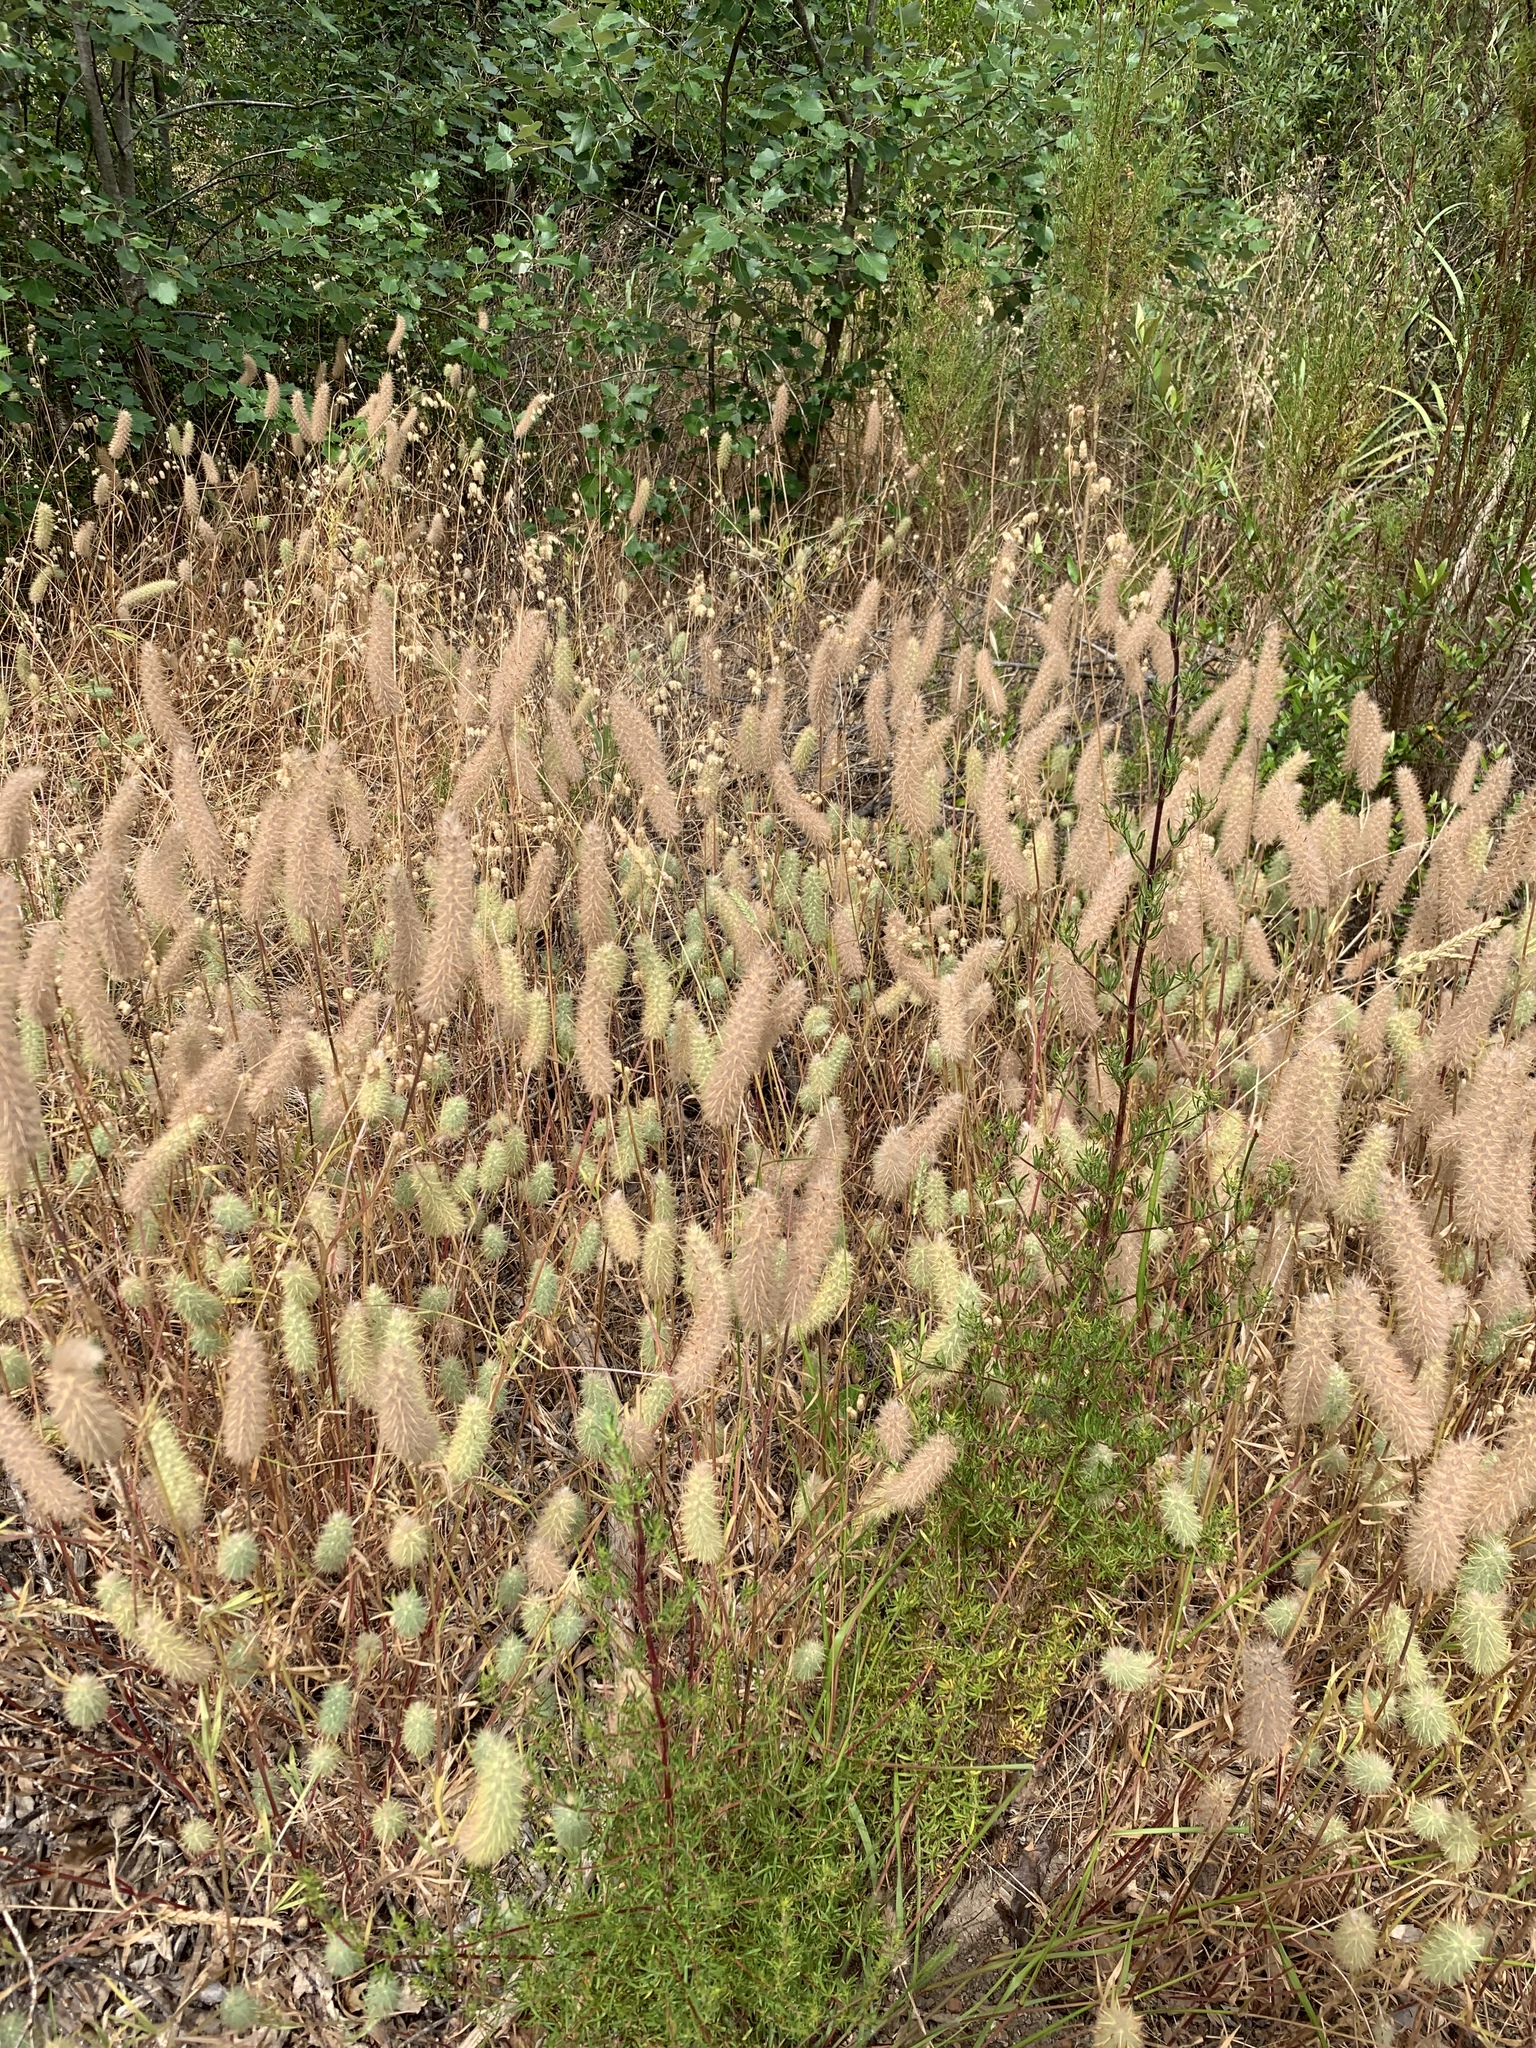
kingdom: Plantae
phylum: Tracheophyta
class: Magnoliopsida
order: Fabales
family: Fabaceae
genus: Trifolium
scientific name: Trifolium angustifolium
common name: Narrow clover
